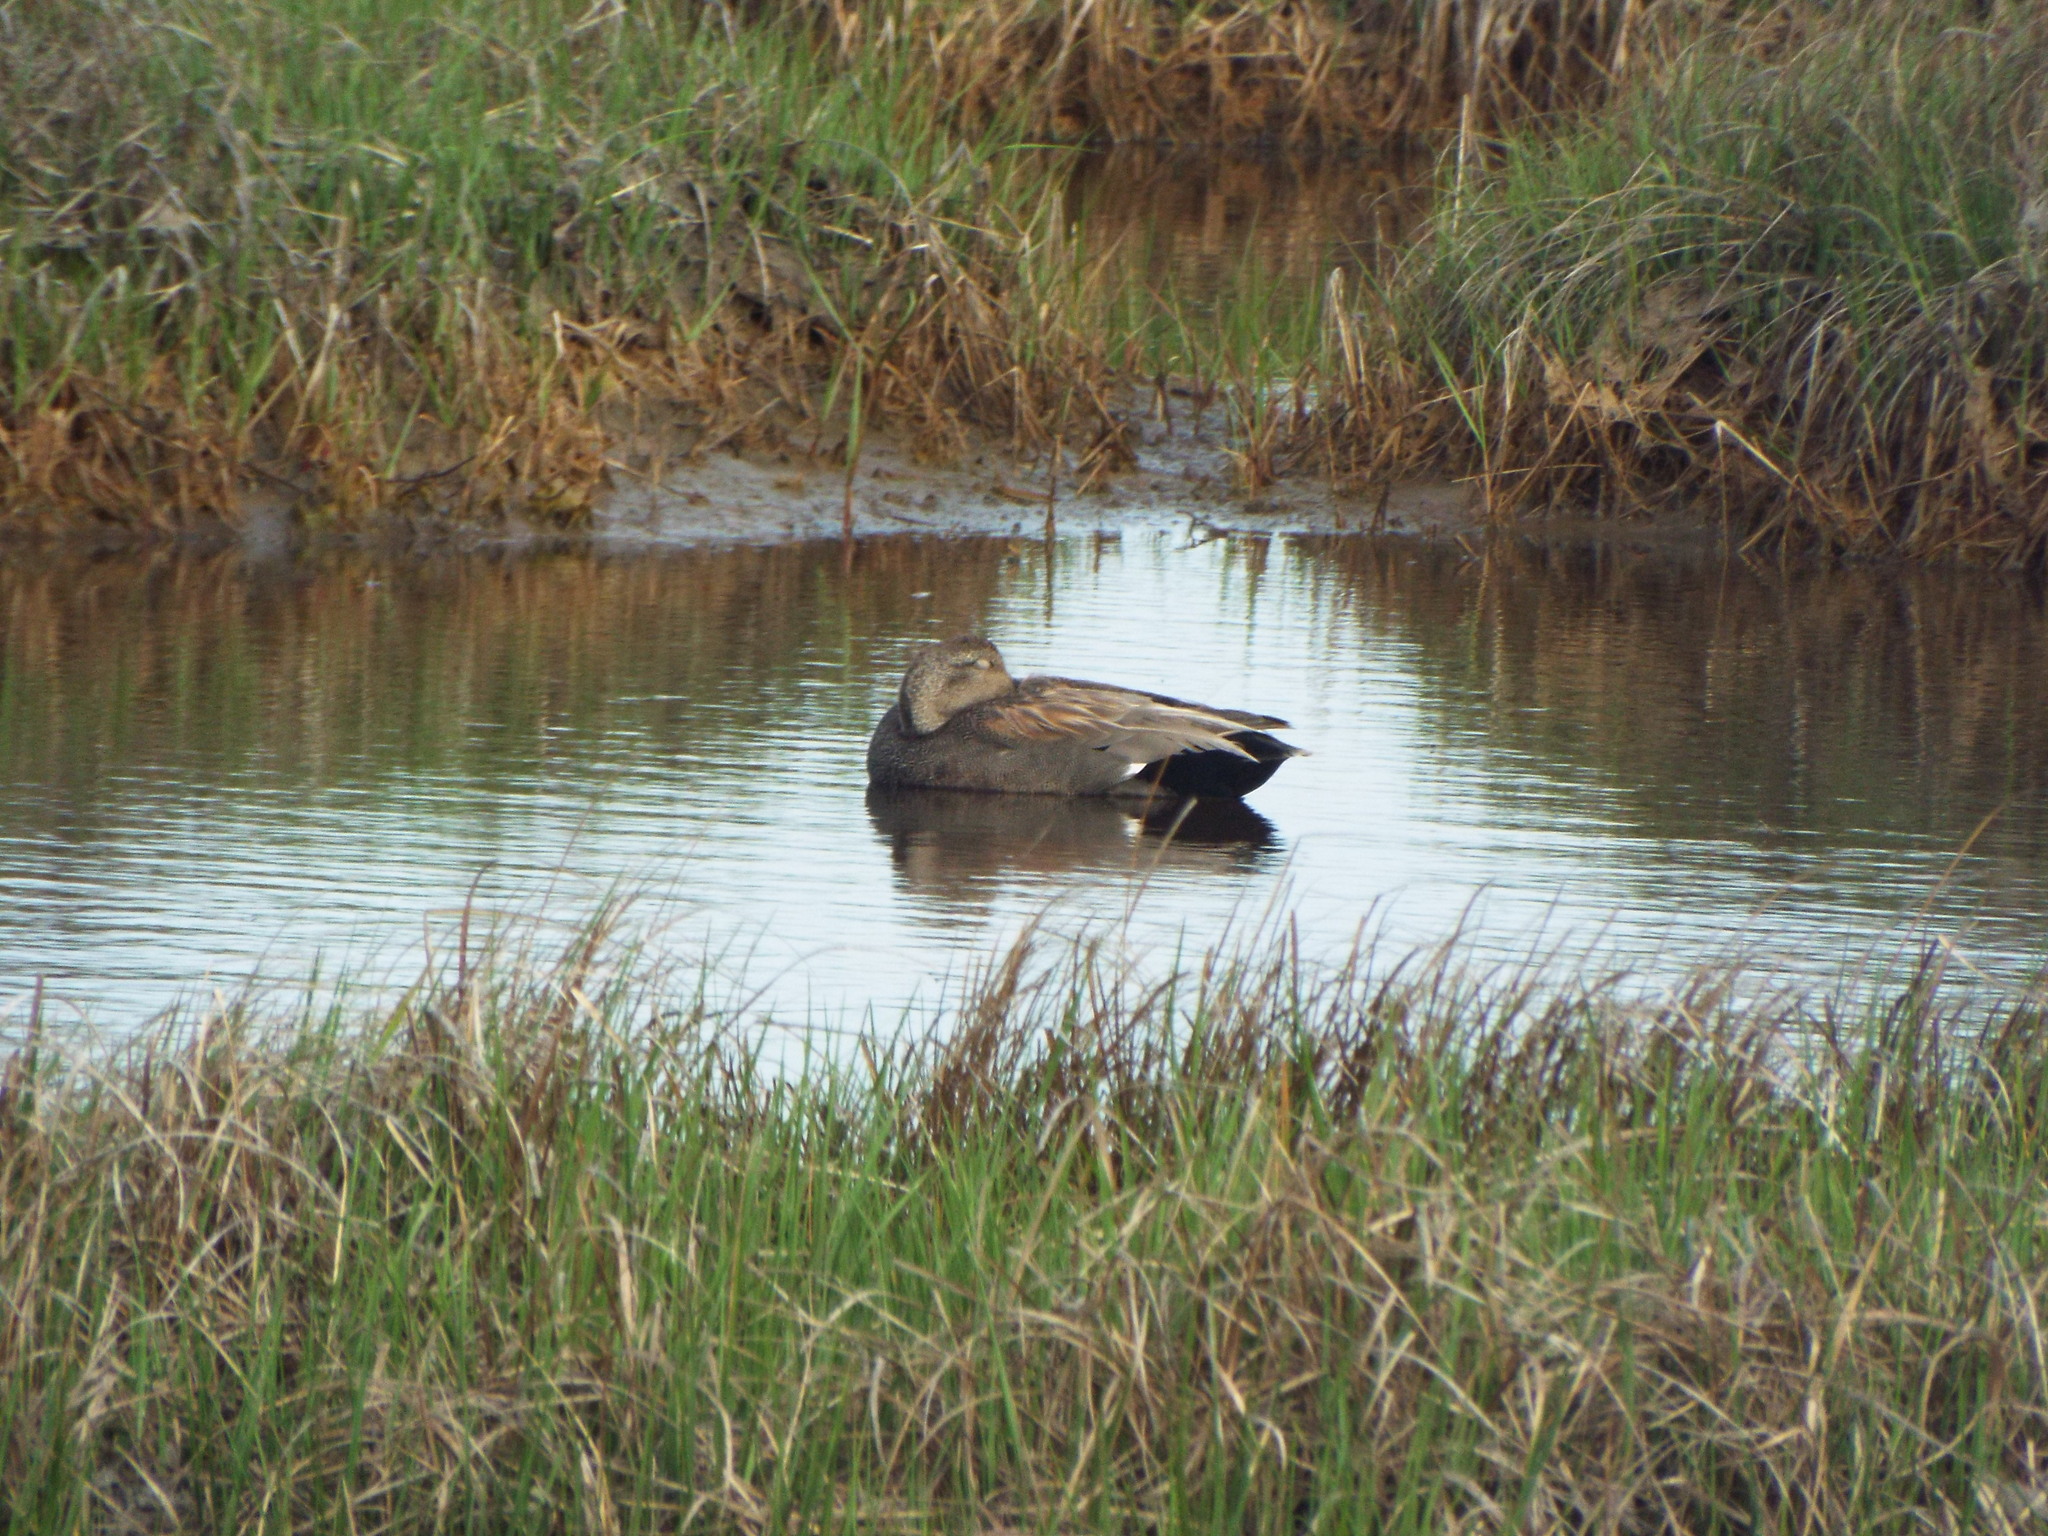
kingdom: Animalia
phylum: Chordata
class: Aves
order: Anseriformes
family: Anatidae
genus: Mareca
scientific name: Mareca strepera
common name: Gadwall
